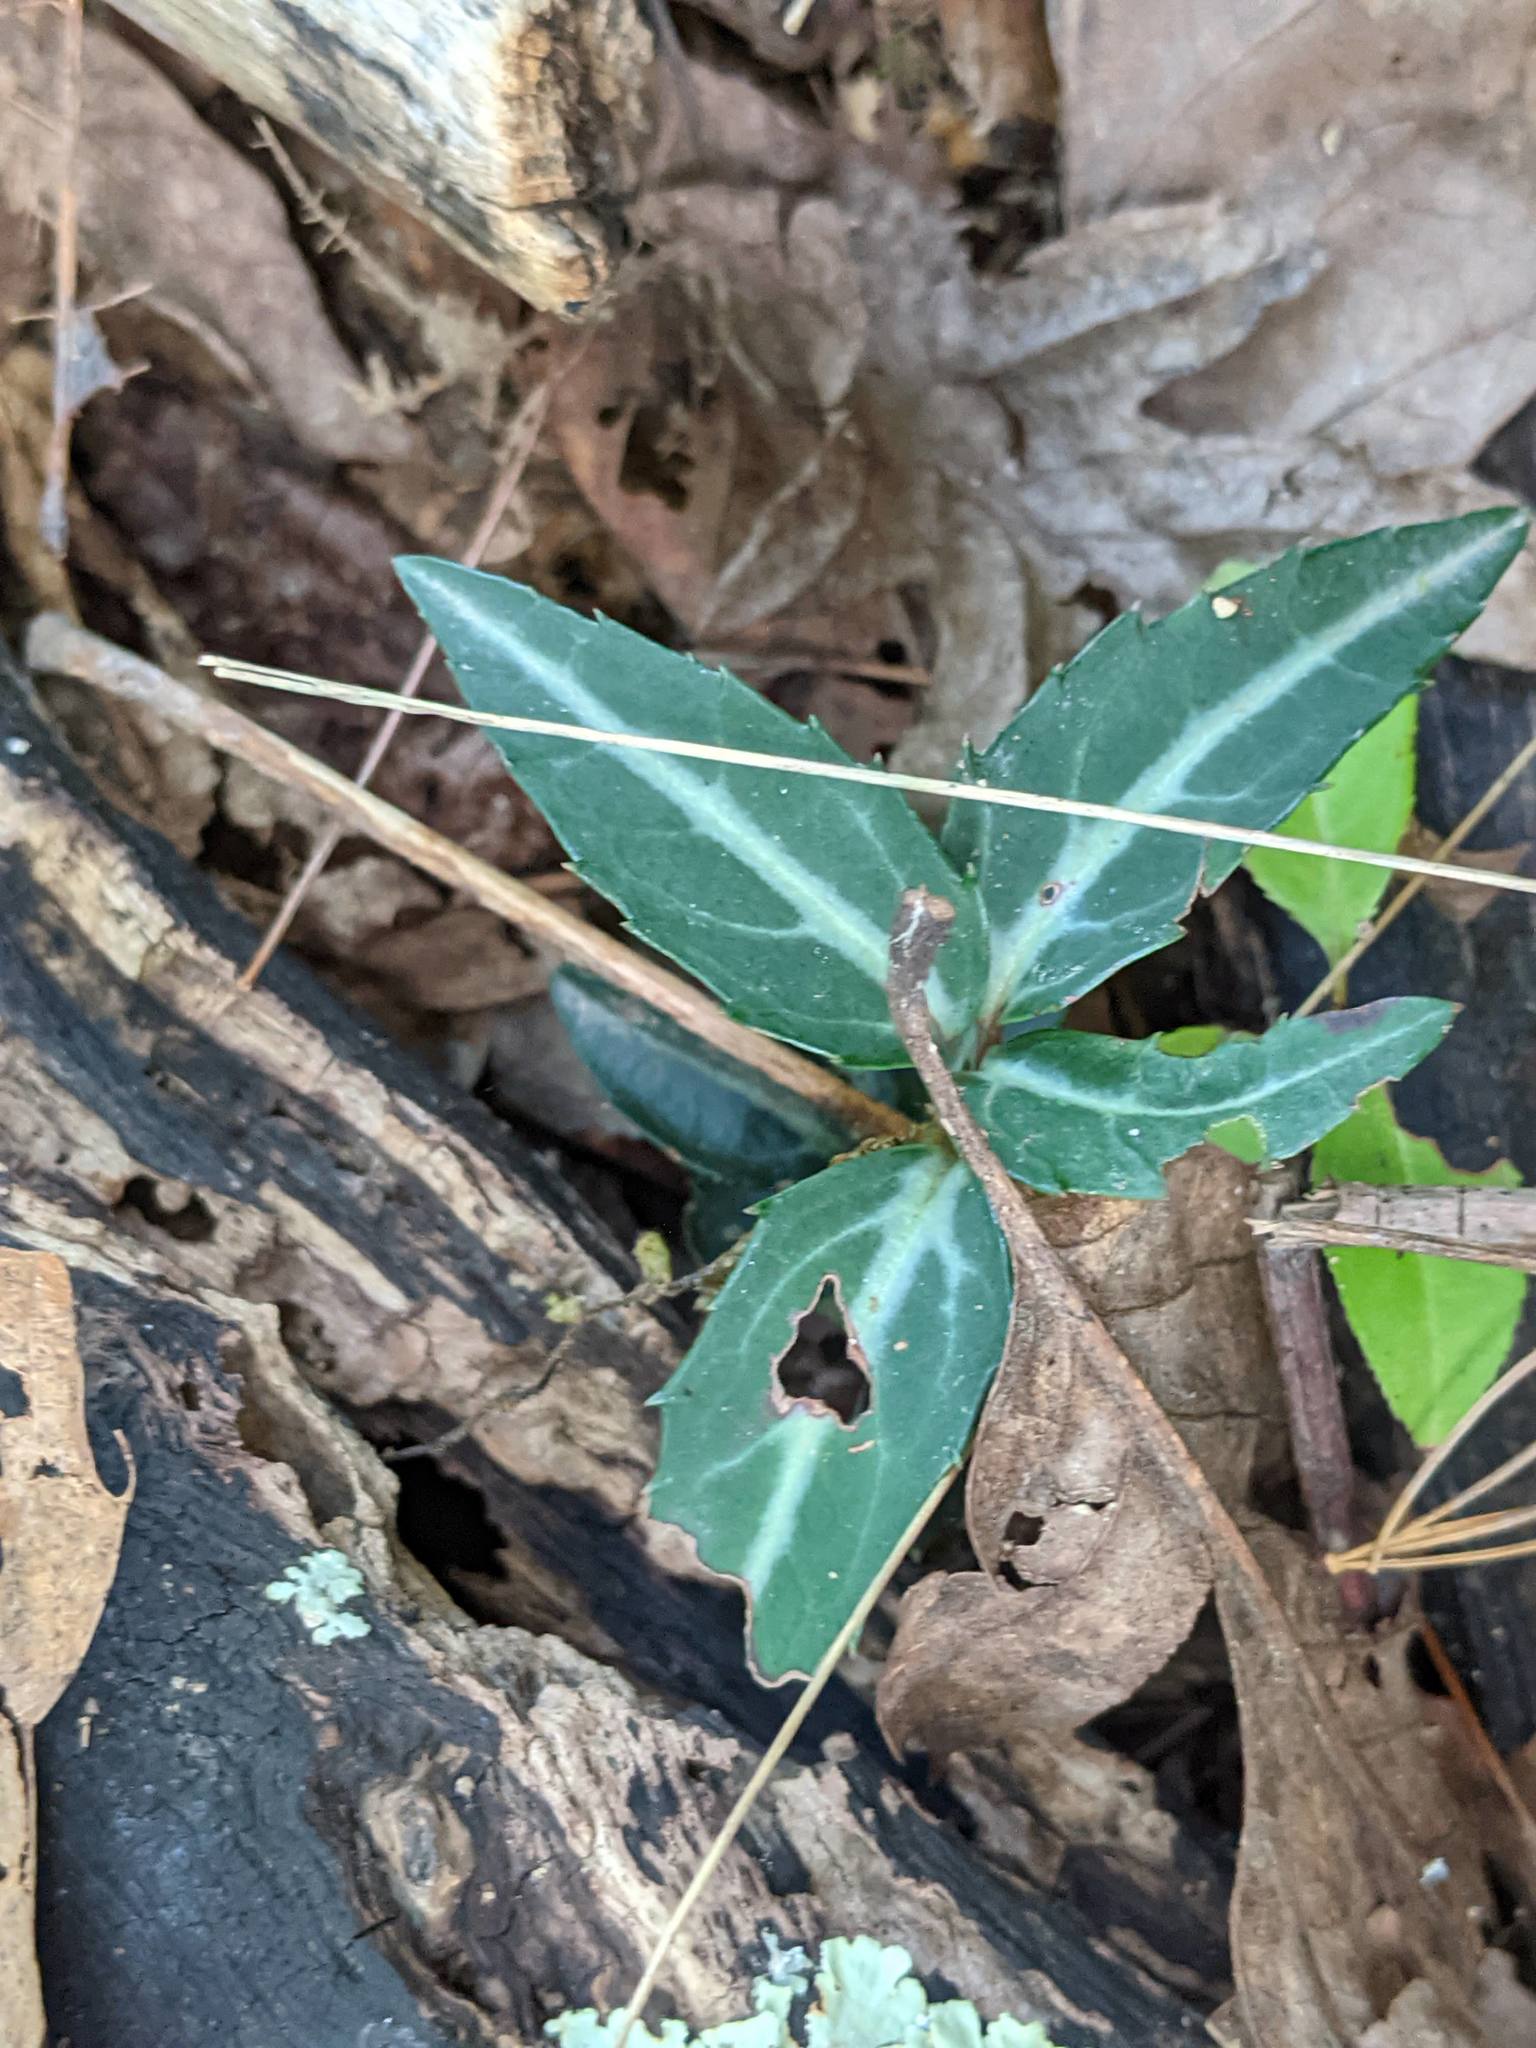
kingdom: Plantae
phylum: Tracheophyta
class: Magnoliopsida
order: Ericales
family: Ericaceae
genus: Chimaphila
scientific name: Chimaphila maculata
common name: Spotted pipsissewa
